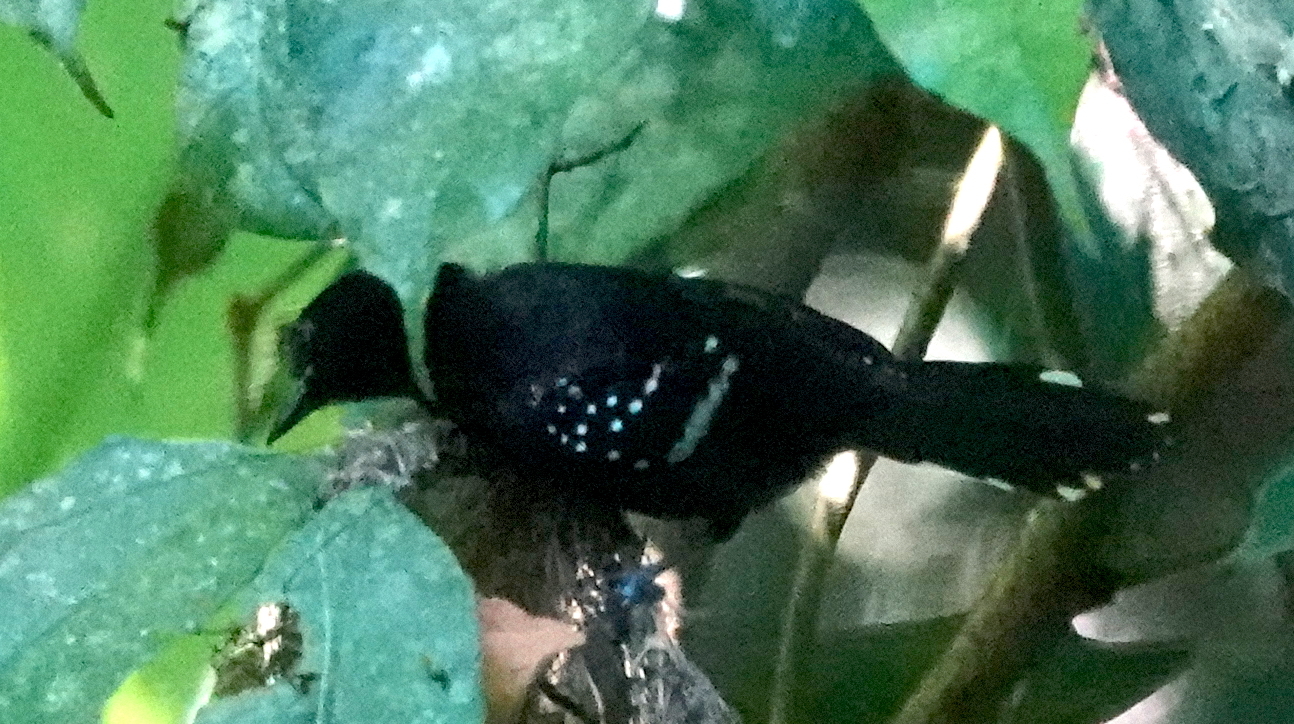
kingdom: Animalia
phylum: Chordata
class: Aves
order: Passeriformes
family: Thamnophilidae
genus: Microrhopias
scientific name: Microrhopias quixensis
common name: Dot-winged antwren
